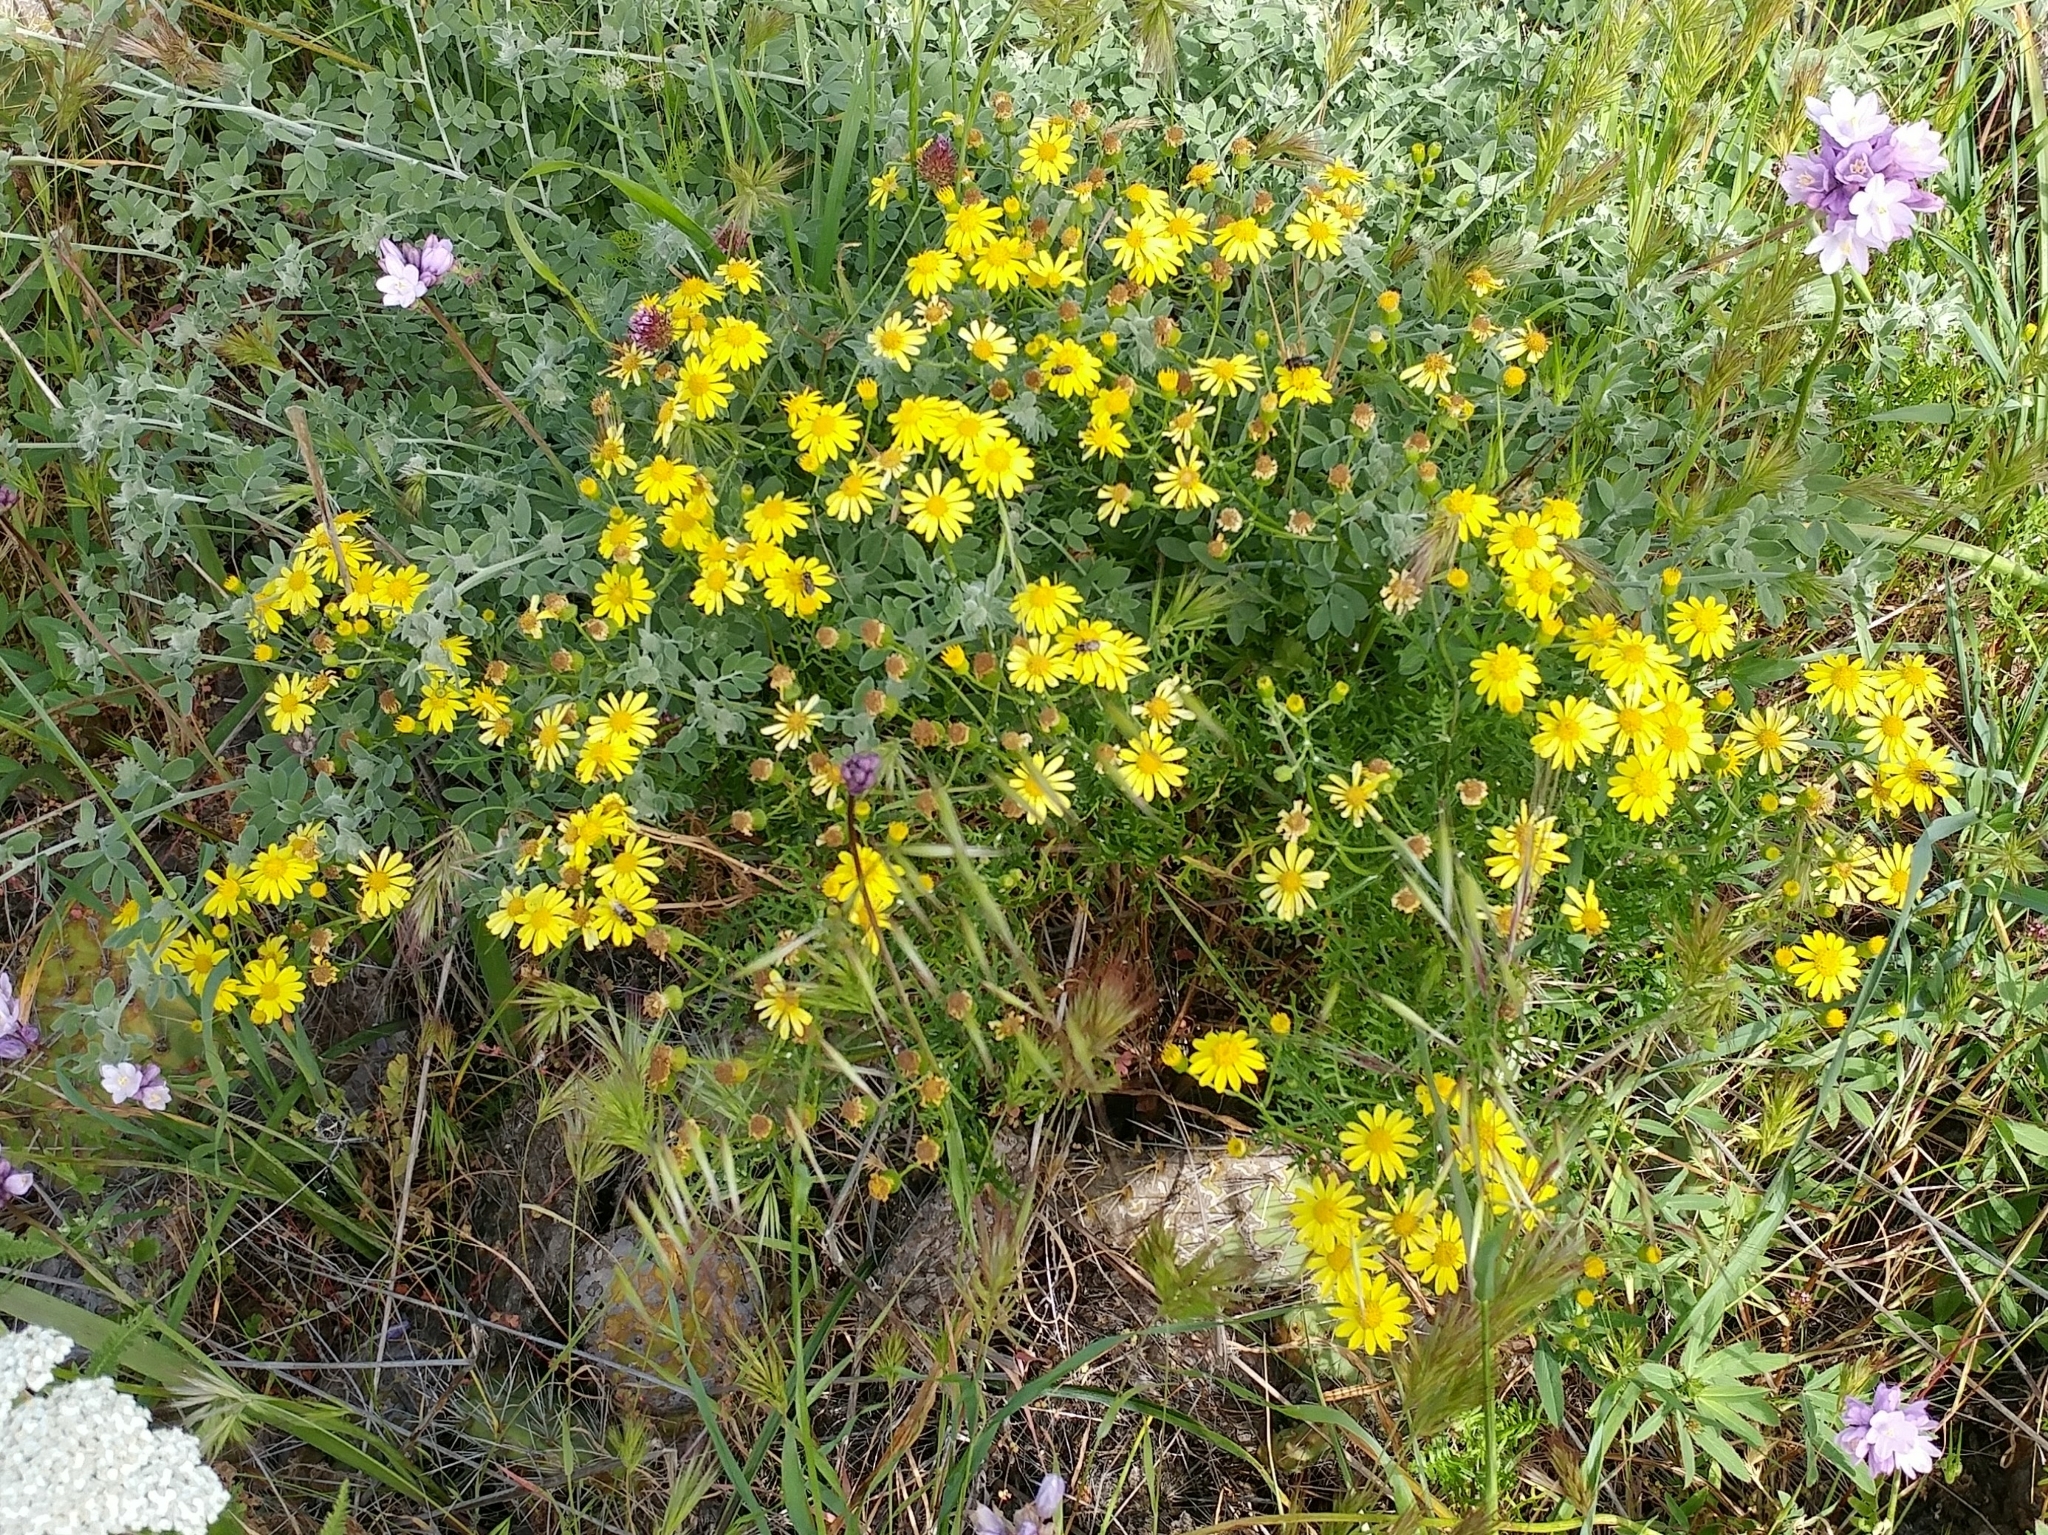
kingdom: Plantae
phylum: Tracheophyta
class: Magnoliopsida
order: Asterales
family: Asteraceae
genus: Senecio
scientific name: Senecio lyonii
